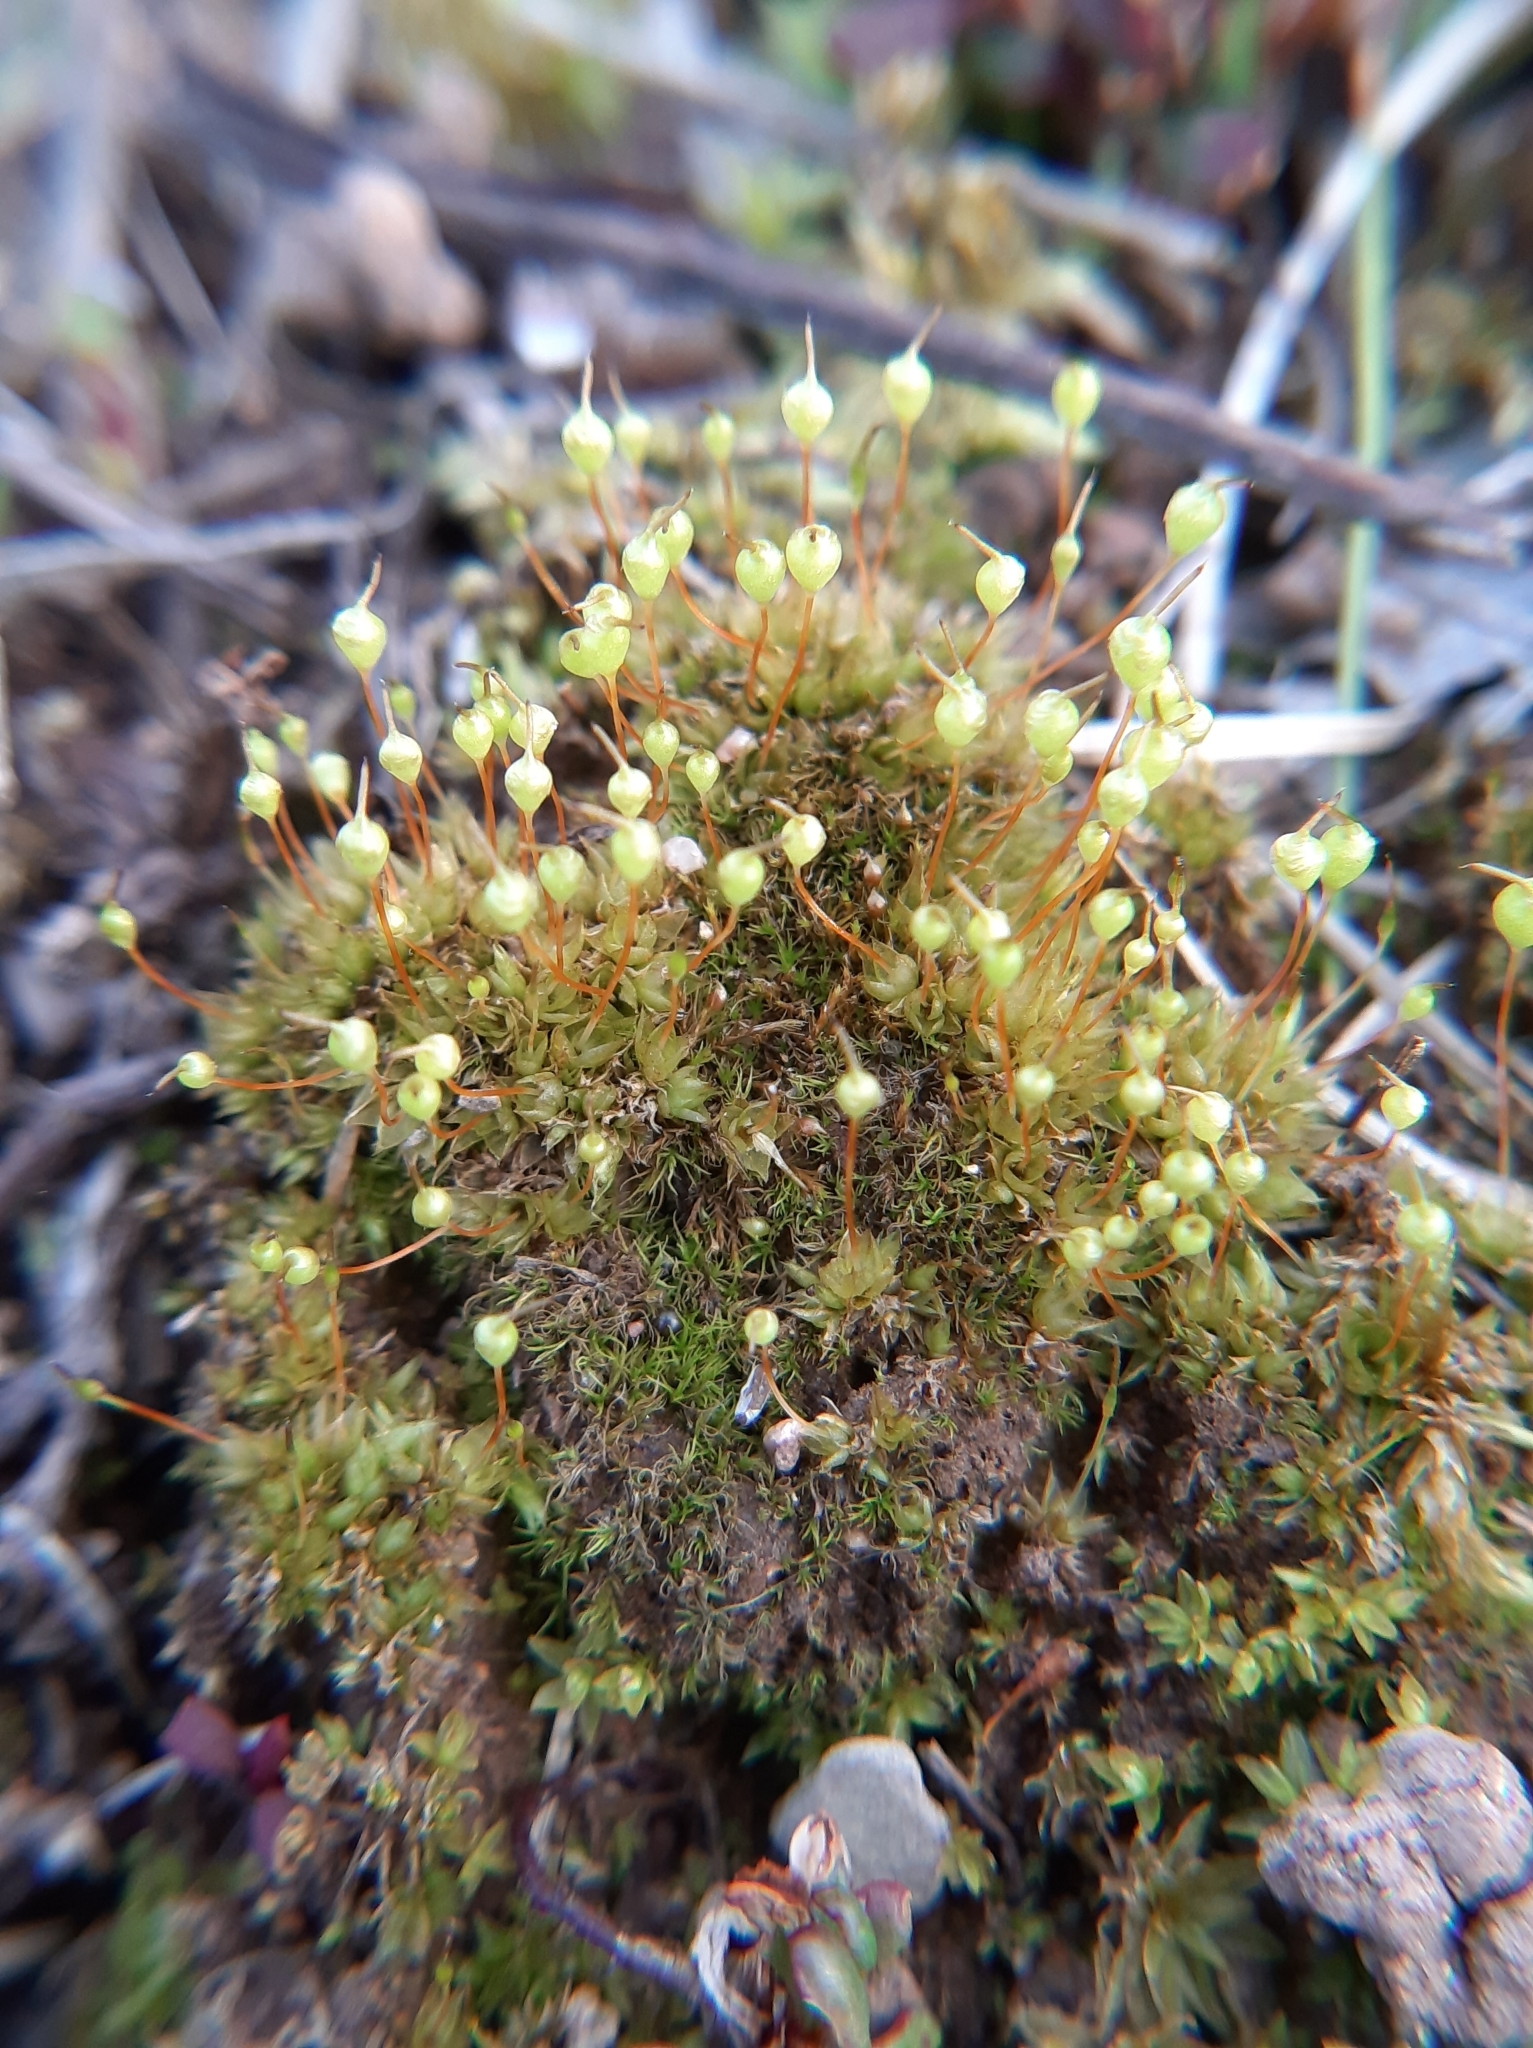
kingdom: Plantae
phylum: Bryophyta
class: Bryopsida
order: Funariales
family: Funariaceae
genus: Physcomitrium
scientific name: Physcomitrium pyriforme
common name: Common bladder-moss
